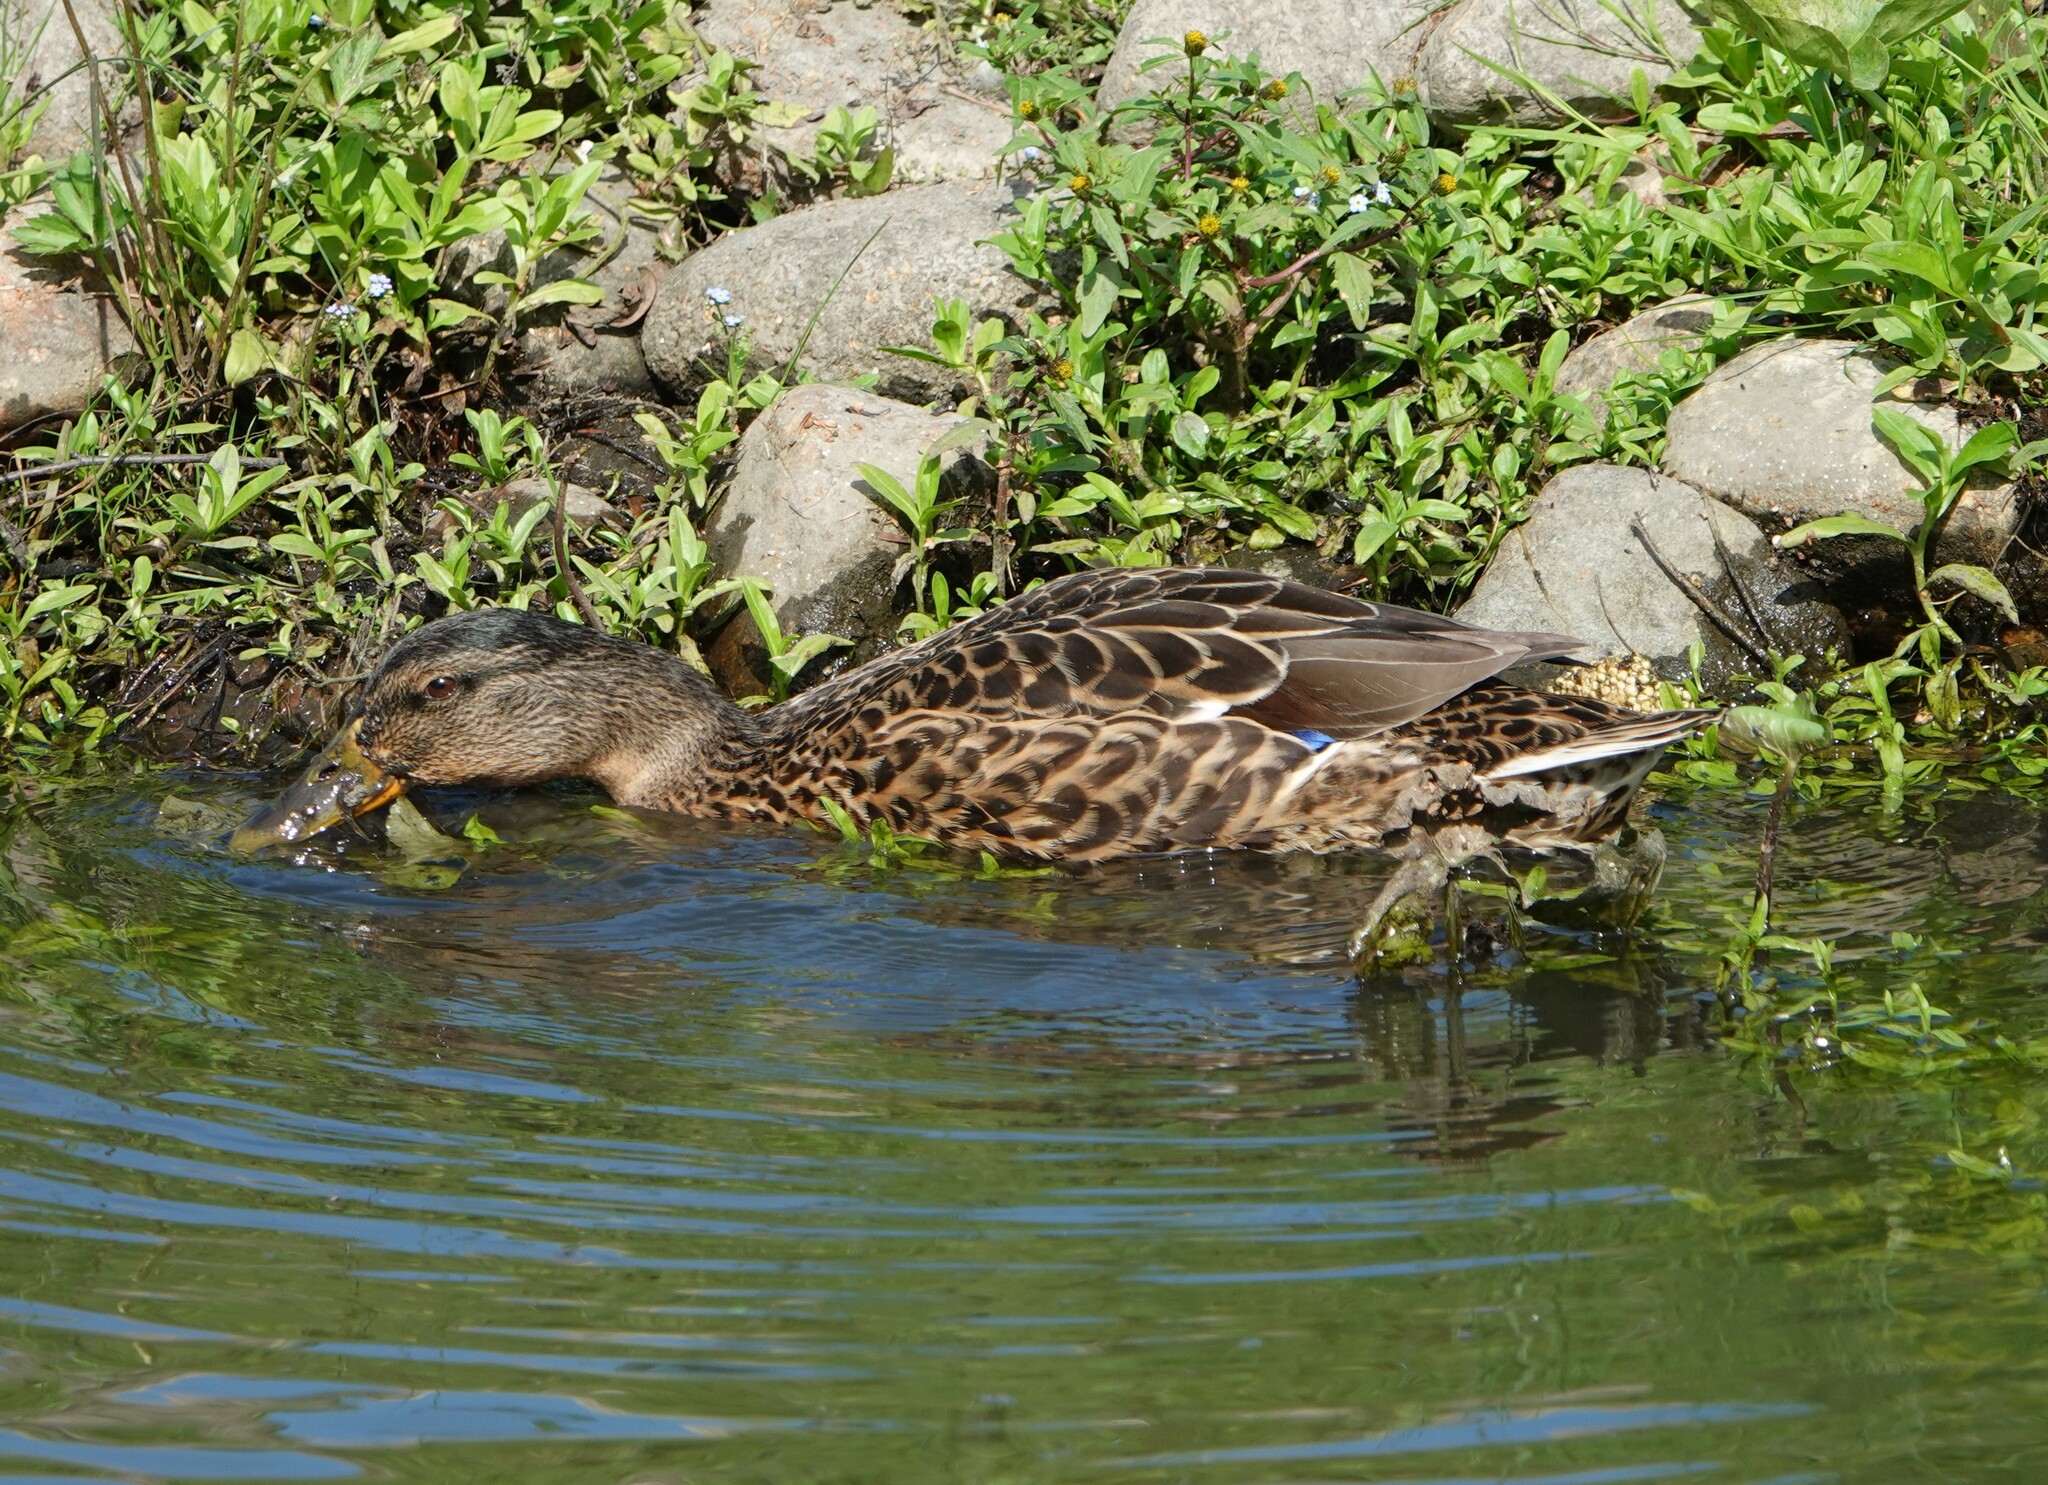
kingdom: Animalia
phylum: Chordata
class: Aves
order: Anseriformes
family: Anatidae
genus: Anas
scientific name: Anas platyrhynchos
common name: Mallard
